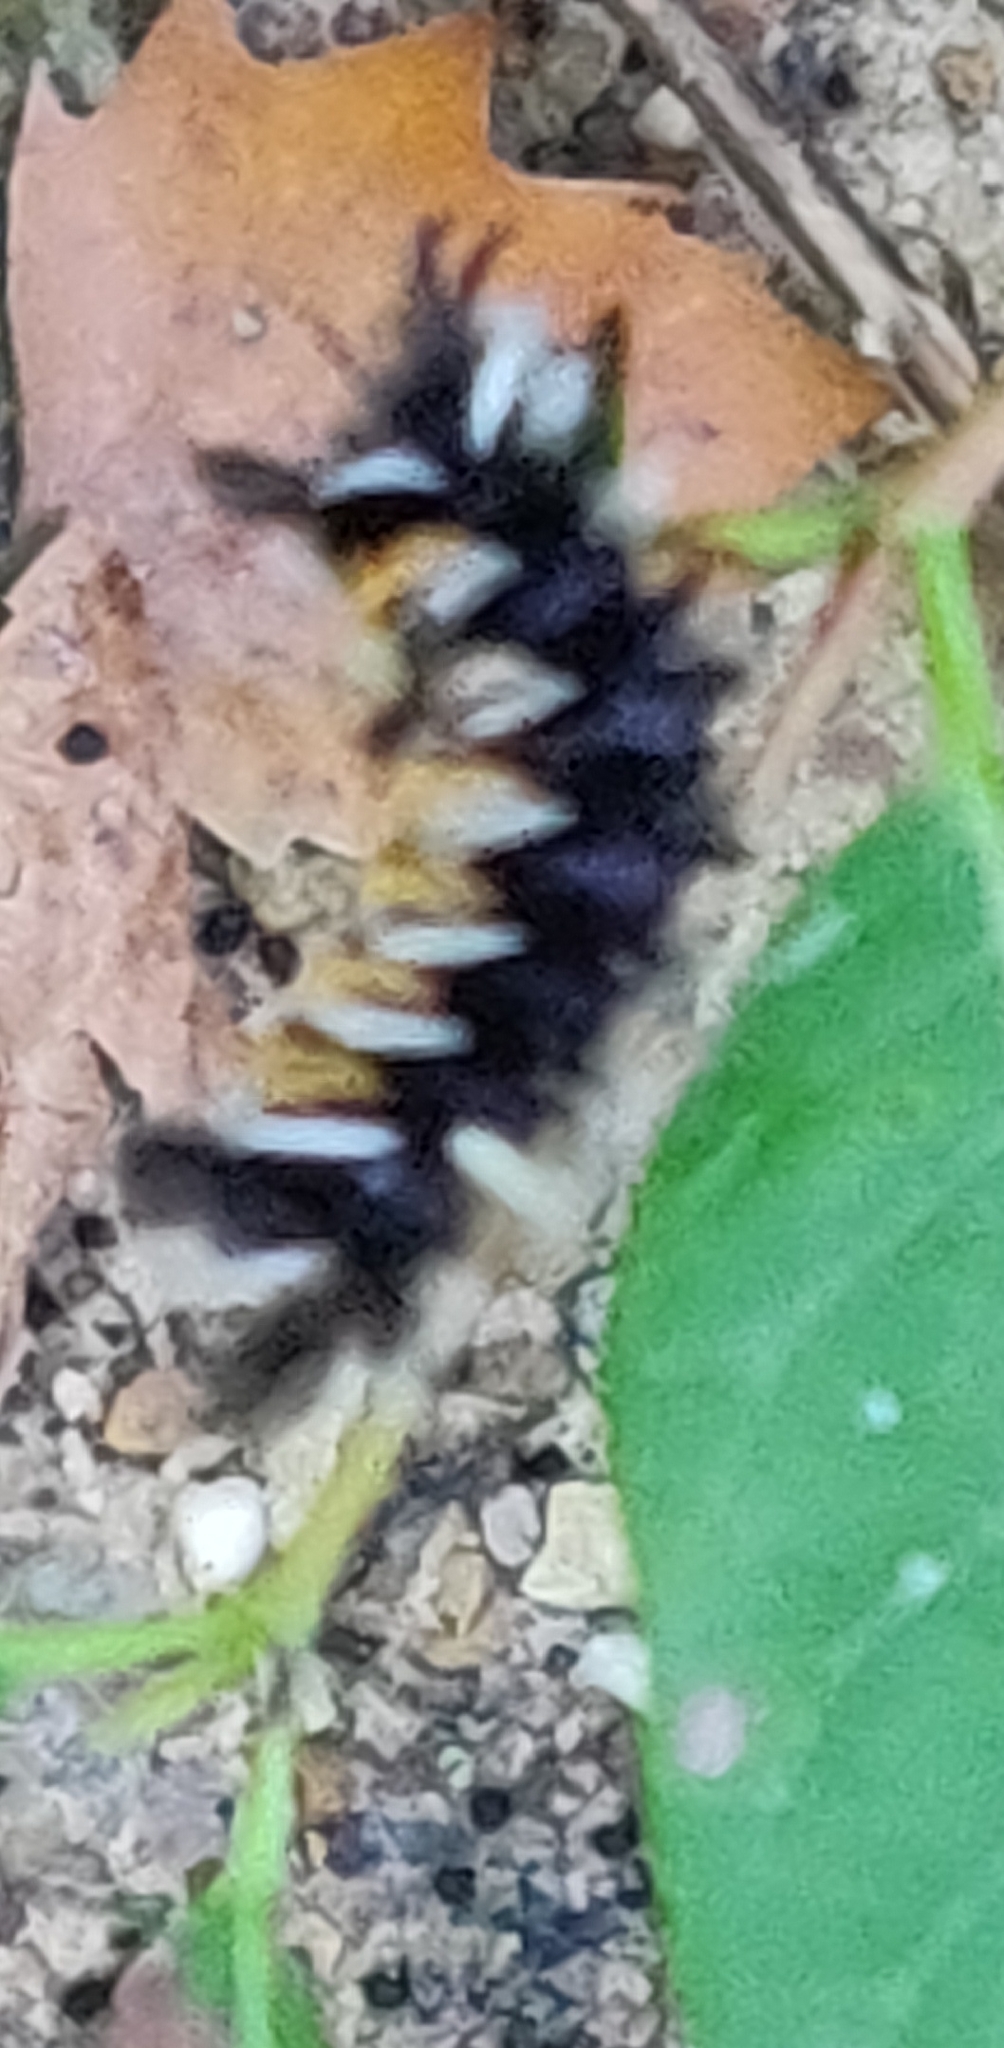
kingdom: Animalia
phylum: Arthropoda
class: Insecta
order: Lepidoptera
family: Erebidae
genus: Euchaetes
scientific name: Euchaetes egle
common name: Milkweed tussock moth
